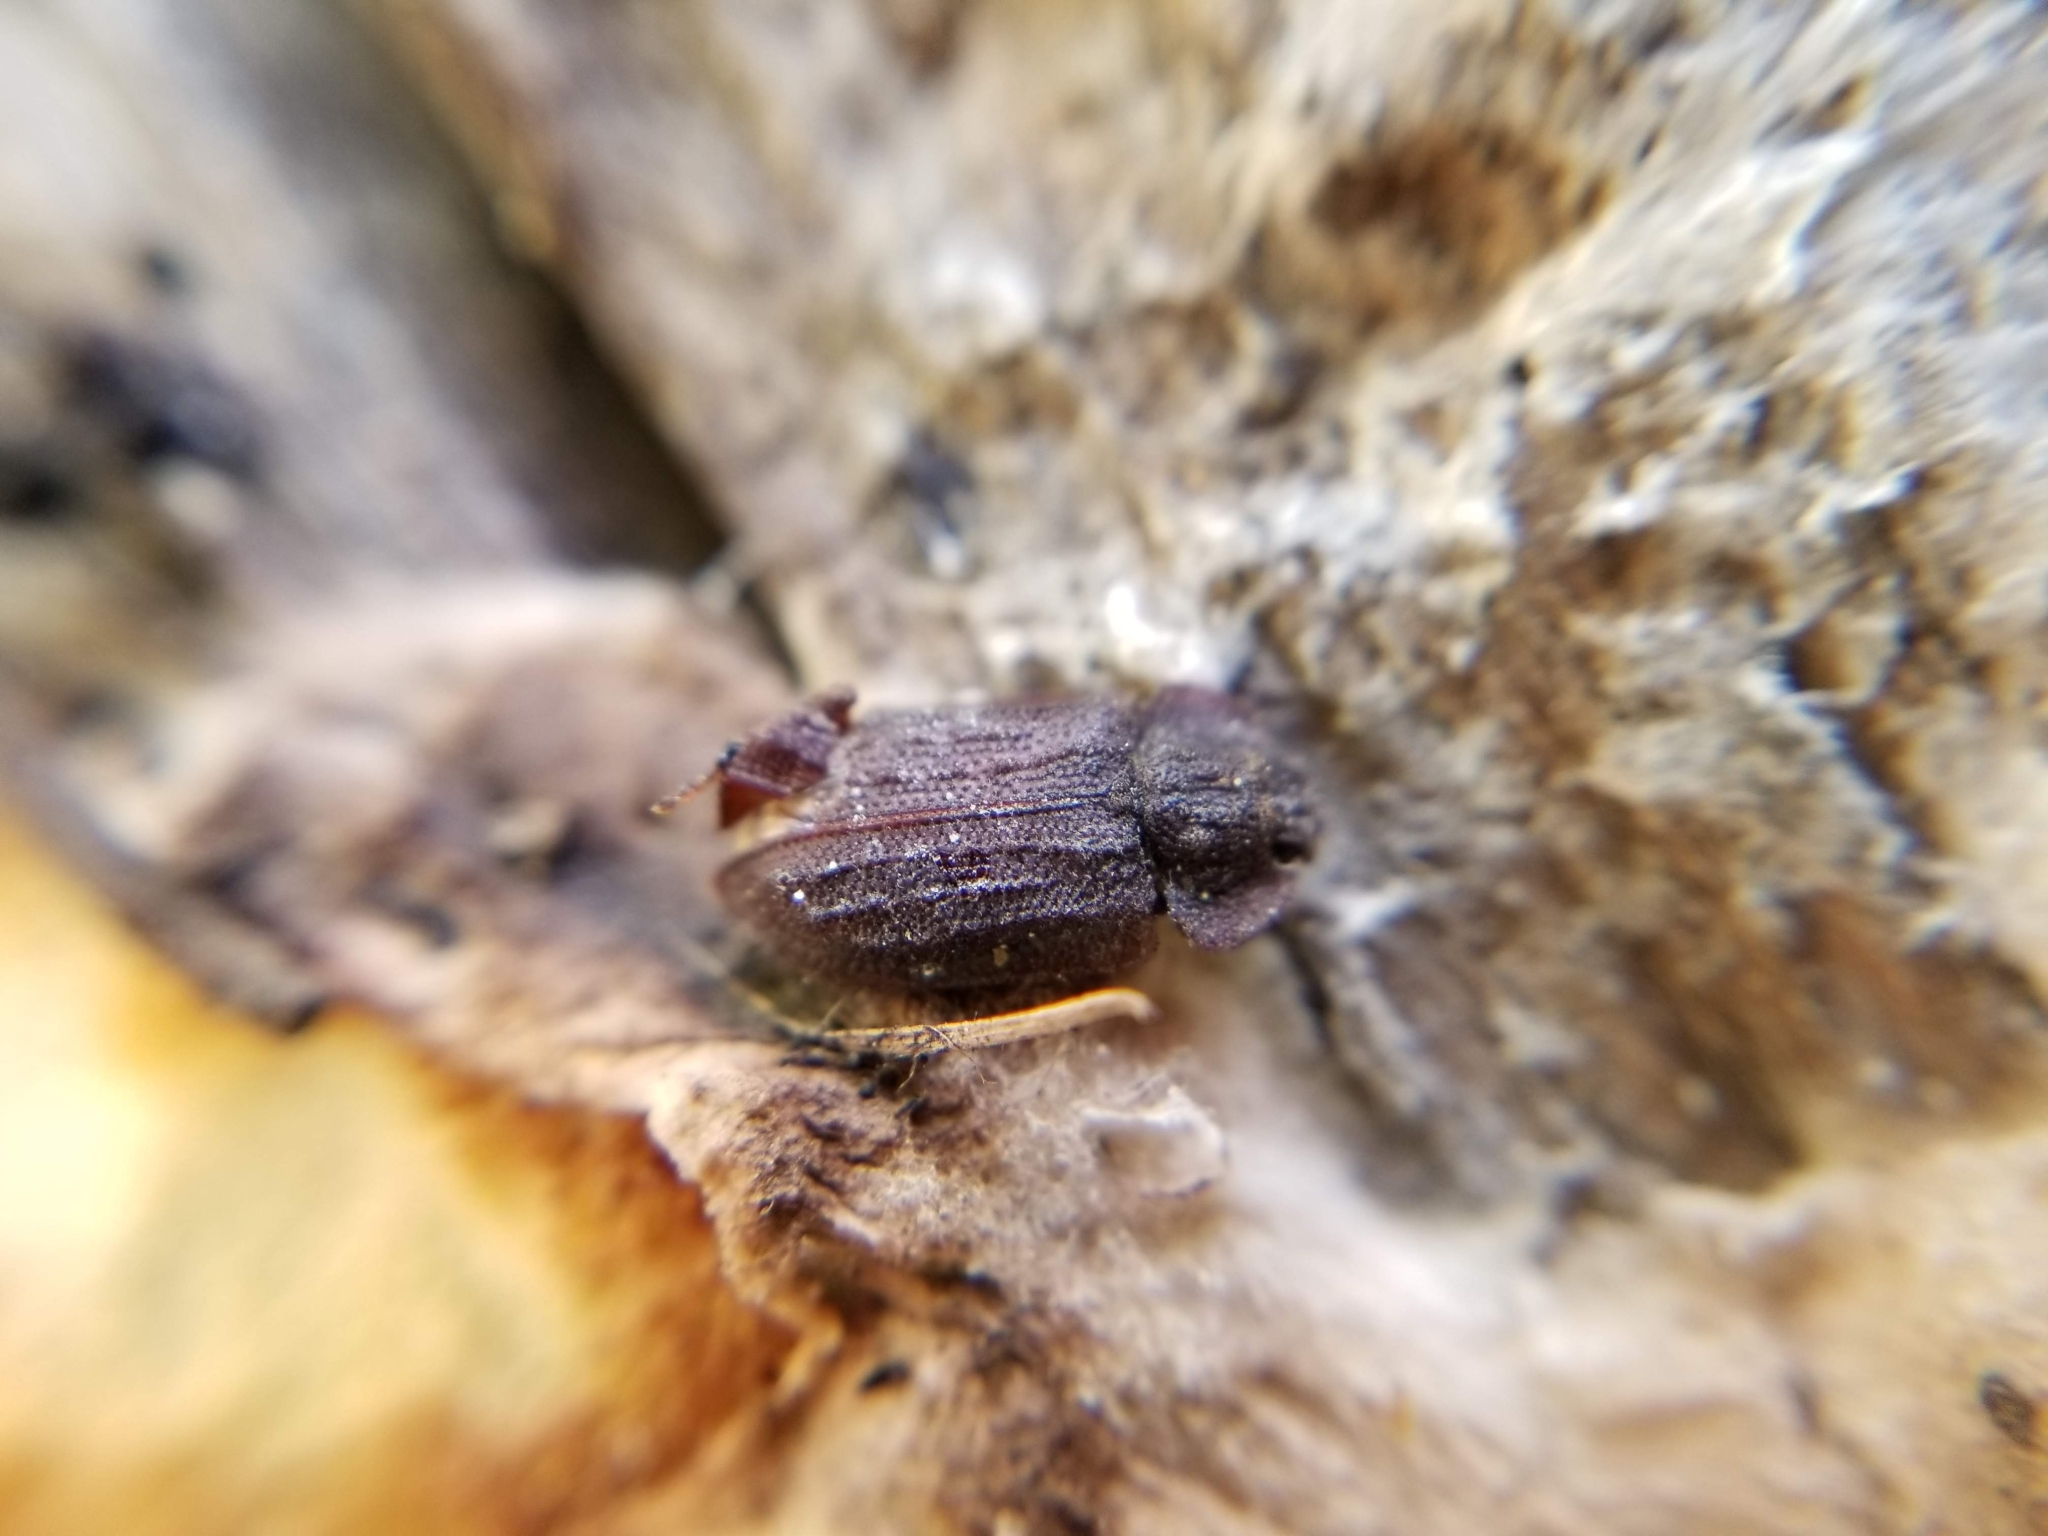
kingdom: Animalia
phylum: Arthropoda
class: Insecta
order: Coleoptera
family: Trogossitidae
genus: Calitys
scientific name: Calitys scabra
